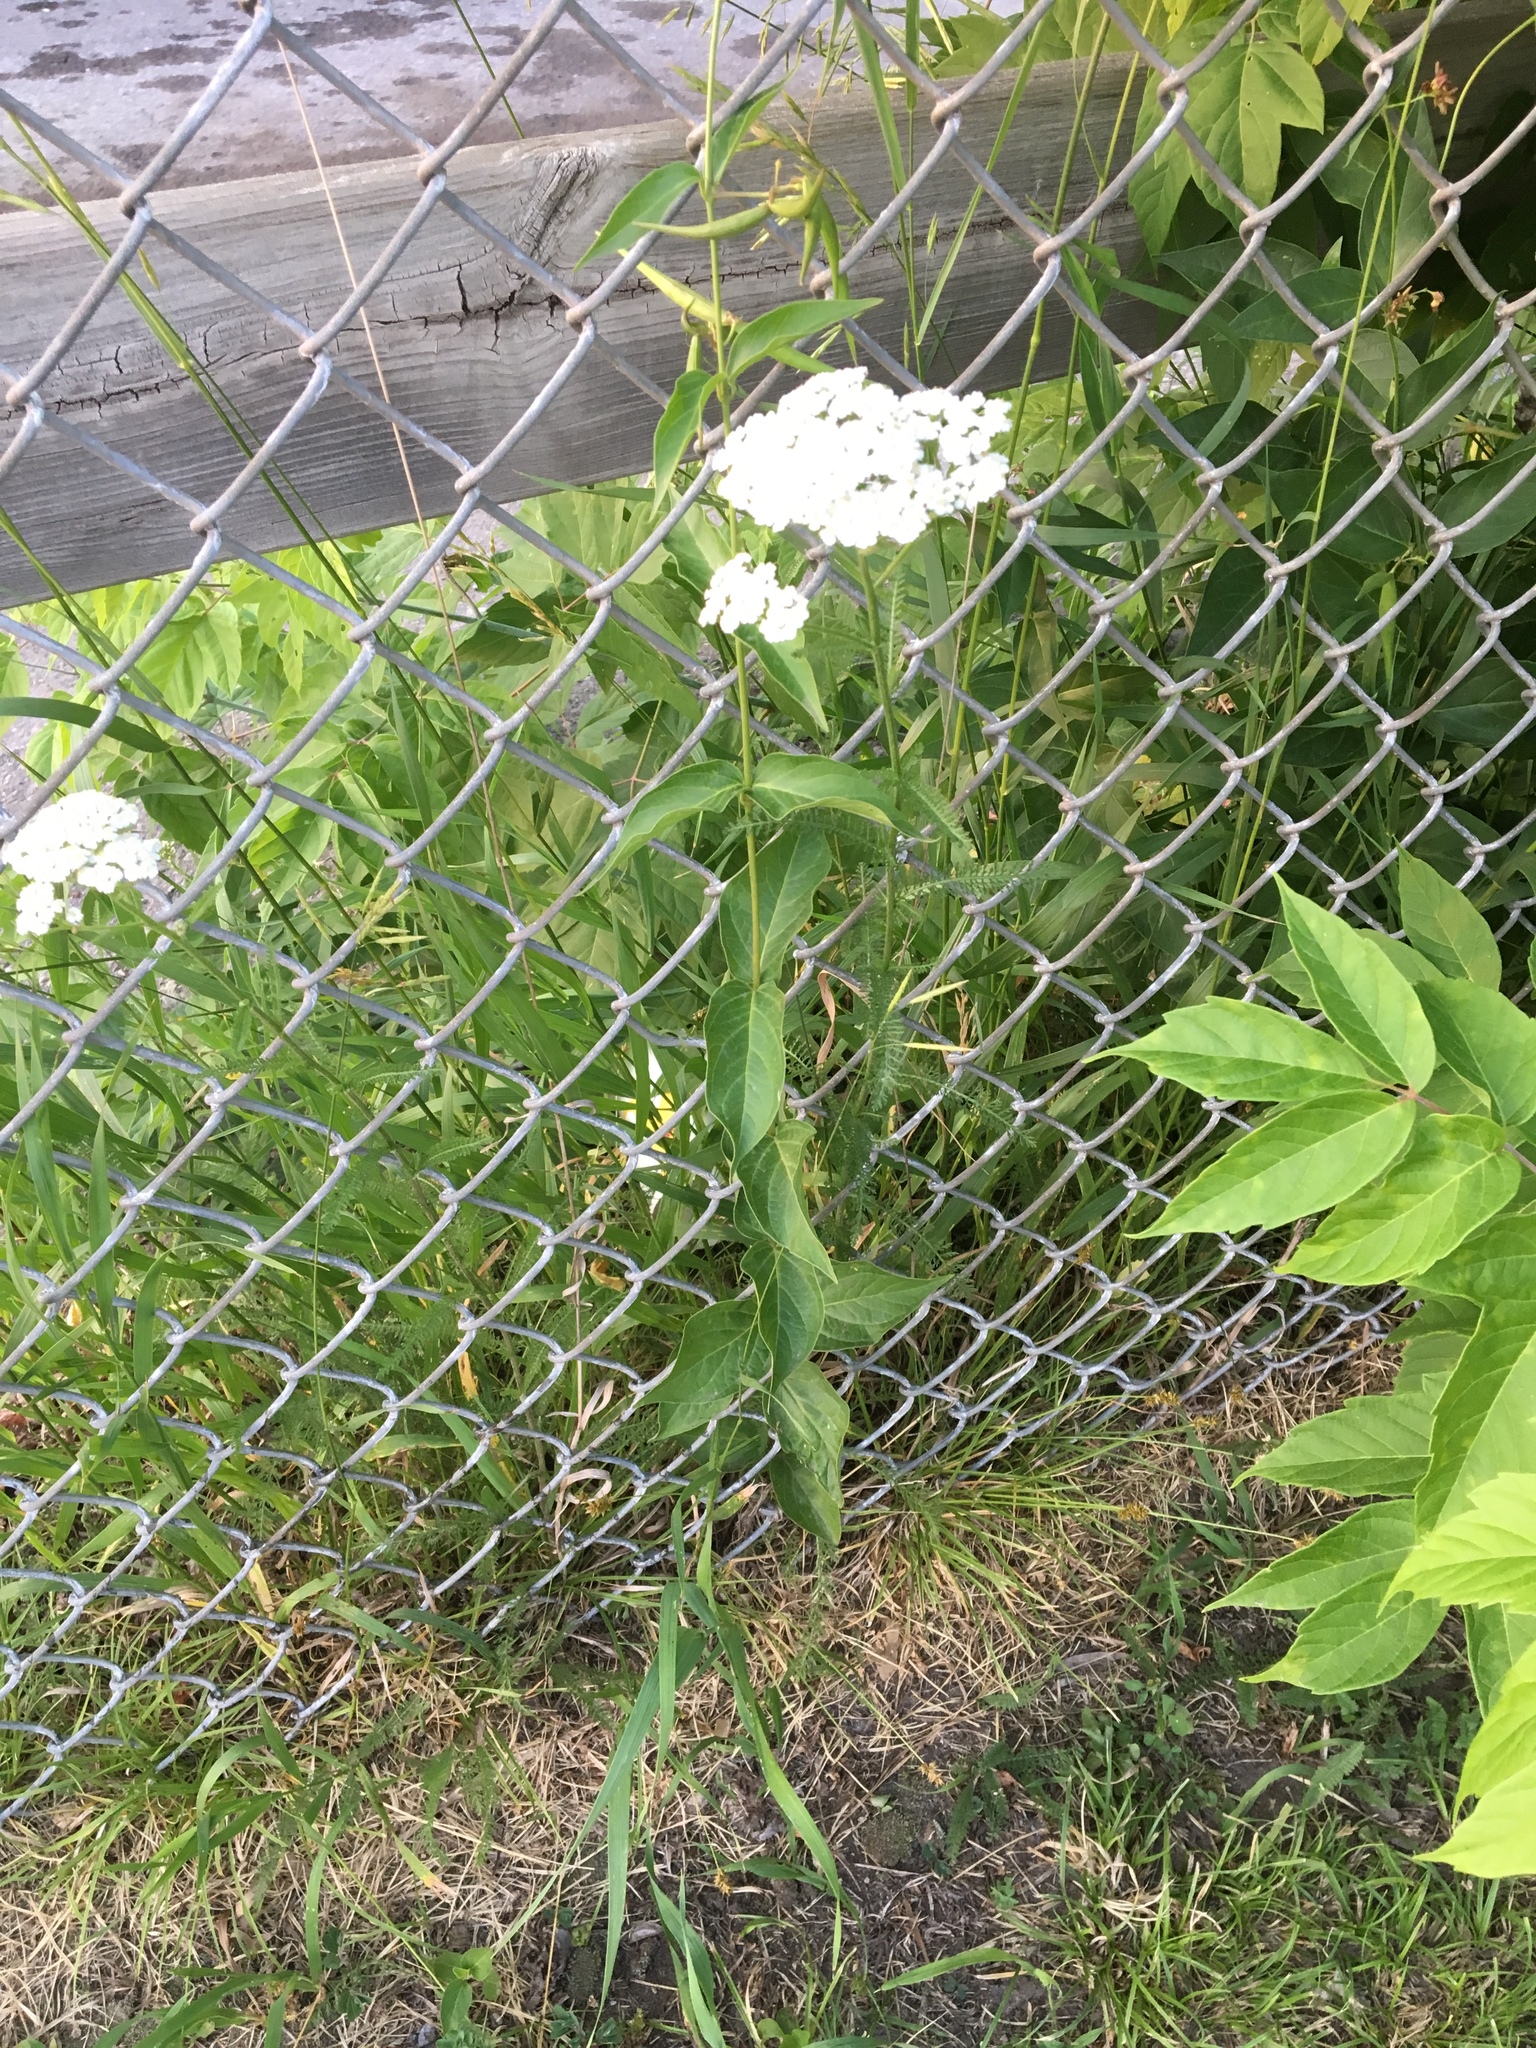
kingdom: Plantae
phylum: Tracheophyta
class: Magnoliopsida
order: Asterales
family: Asteraceae
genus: Achillea
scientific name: Achillea millefolium
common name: Yarrow
